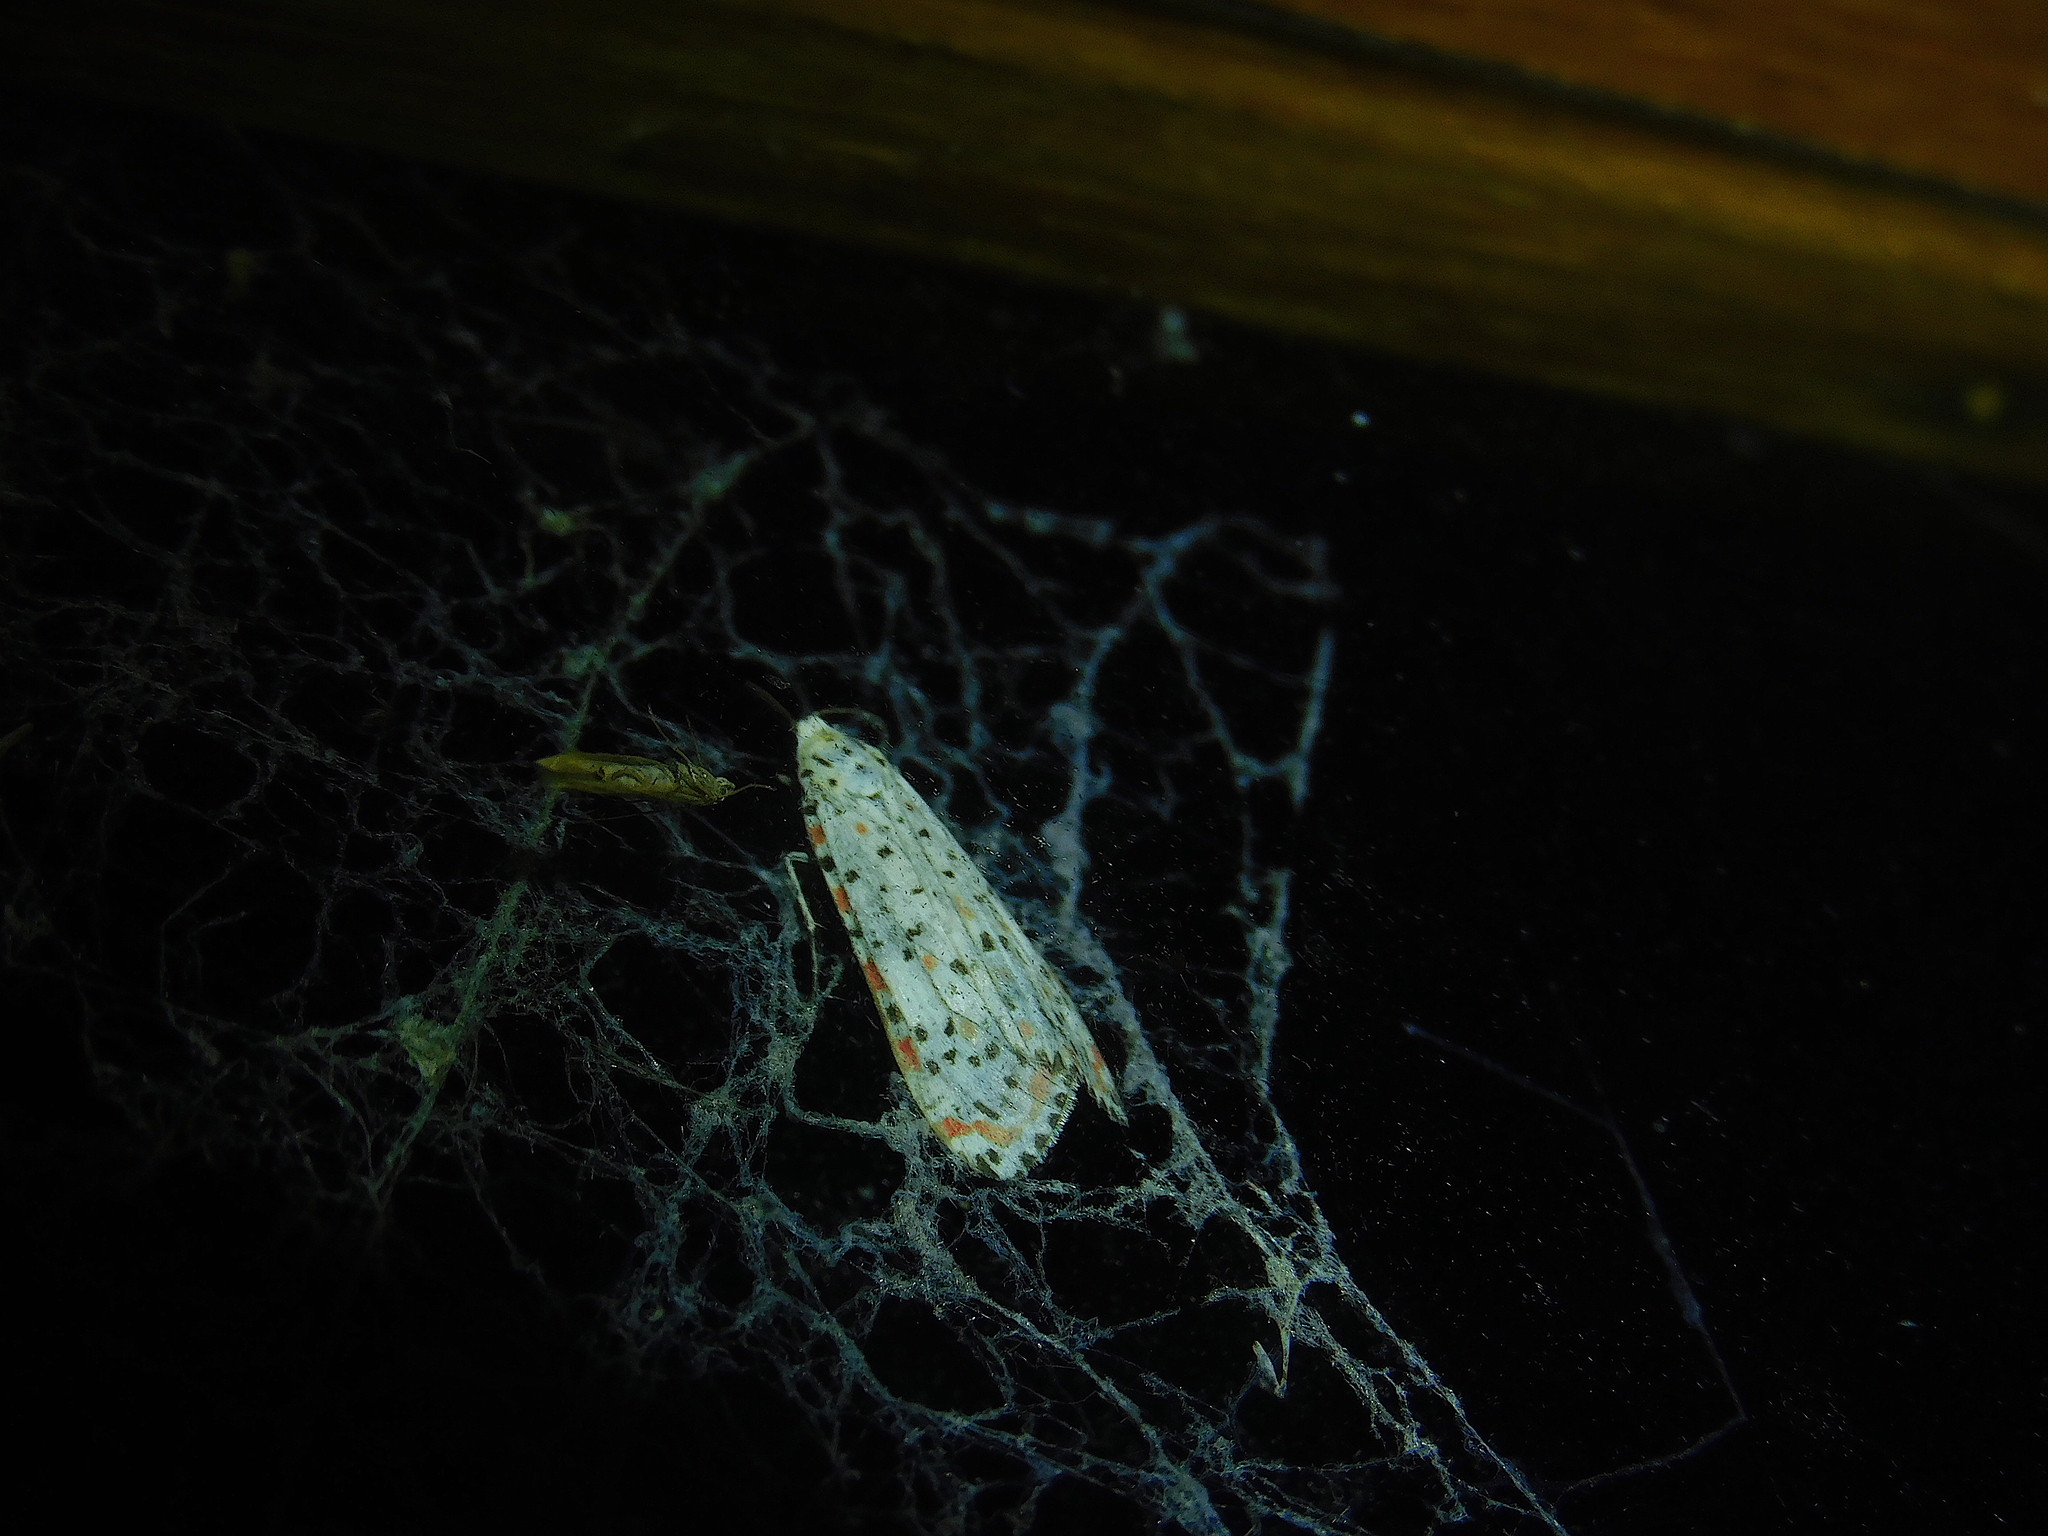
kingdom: Animalia
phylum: Arthropoda
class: Insecta
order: Lepidoptera
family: Erebidae
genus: Utetheisa
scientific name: Utetheisa pulchelloides
